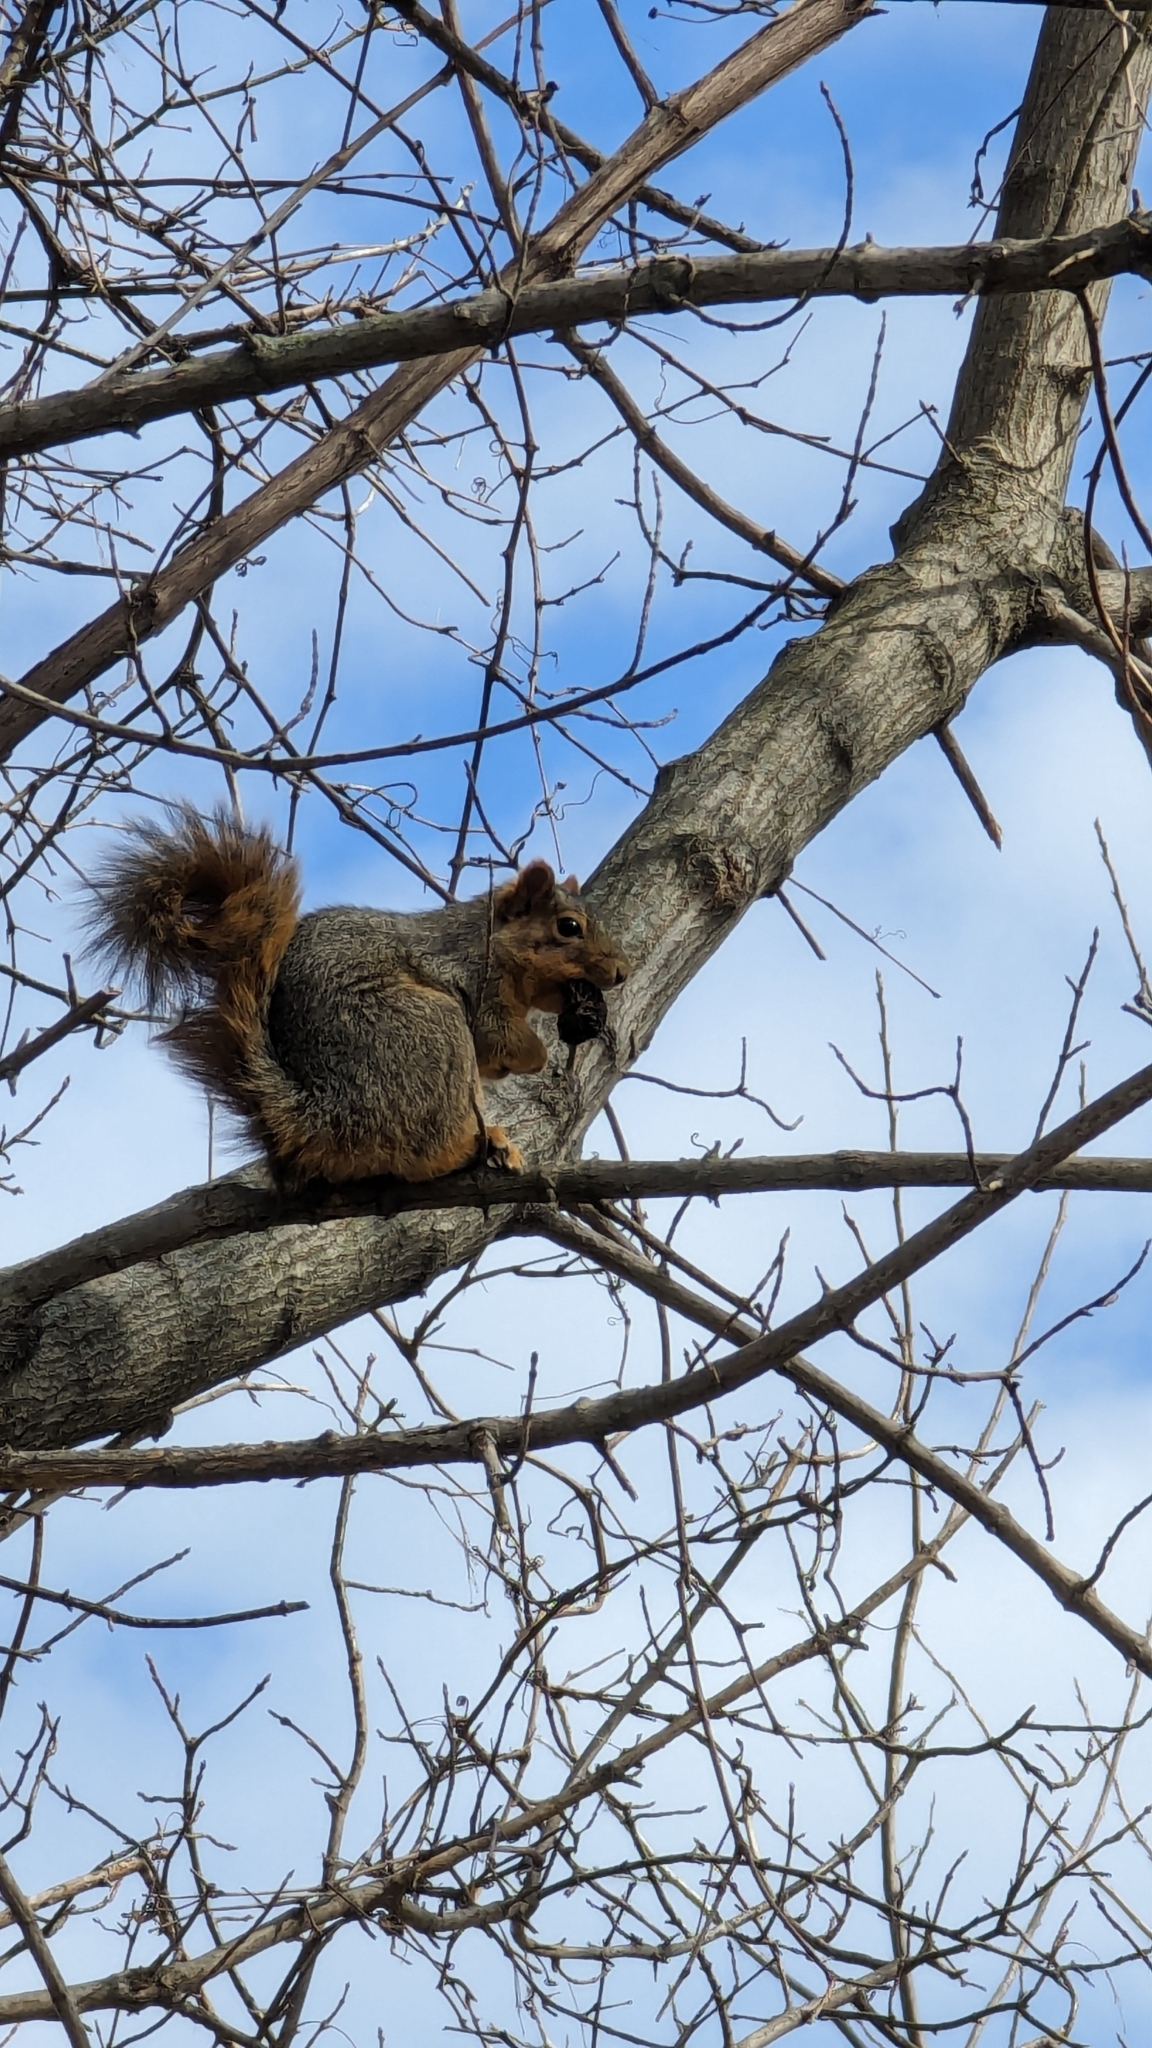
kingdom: Animalia
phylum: Chordata
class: Mammalia
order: Rodentia
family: Sciuridae
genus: Sciurus
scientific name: Sciurus niger
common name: Fox squirrel
